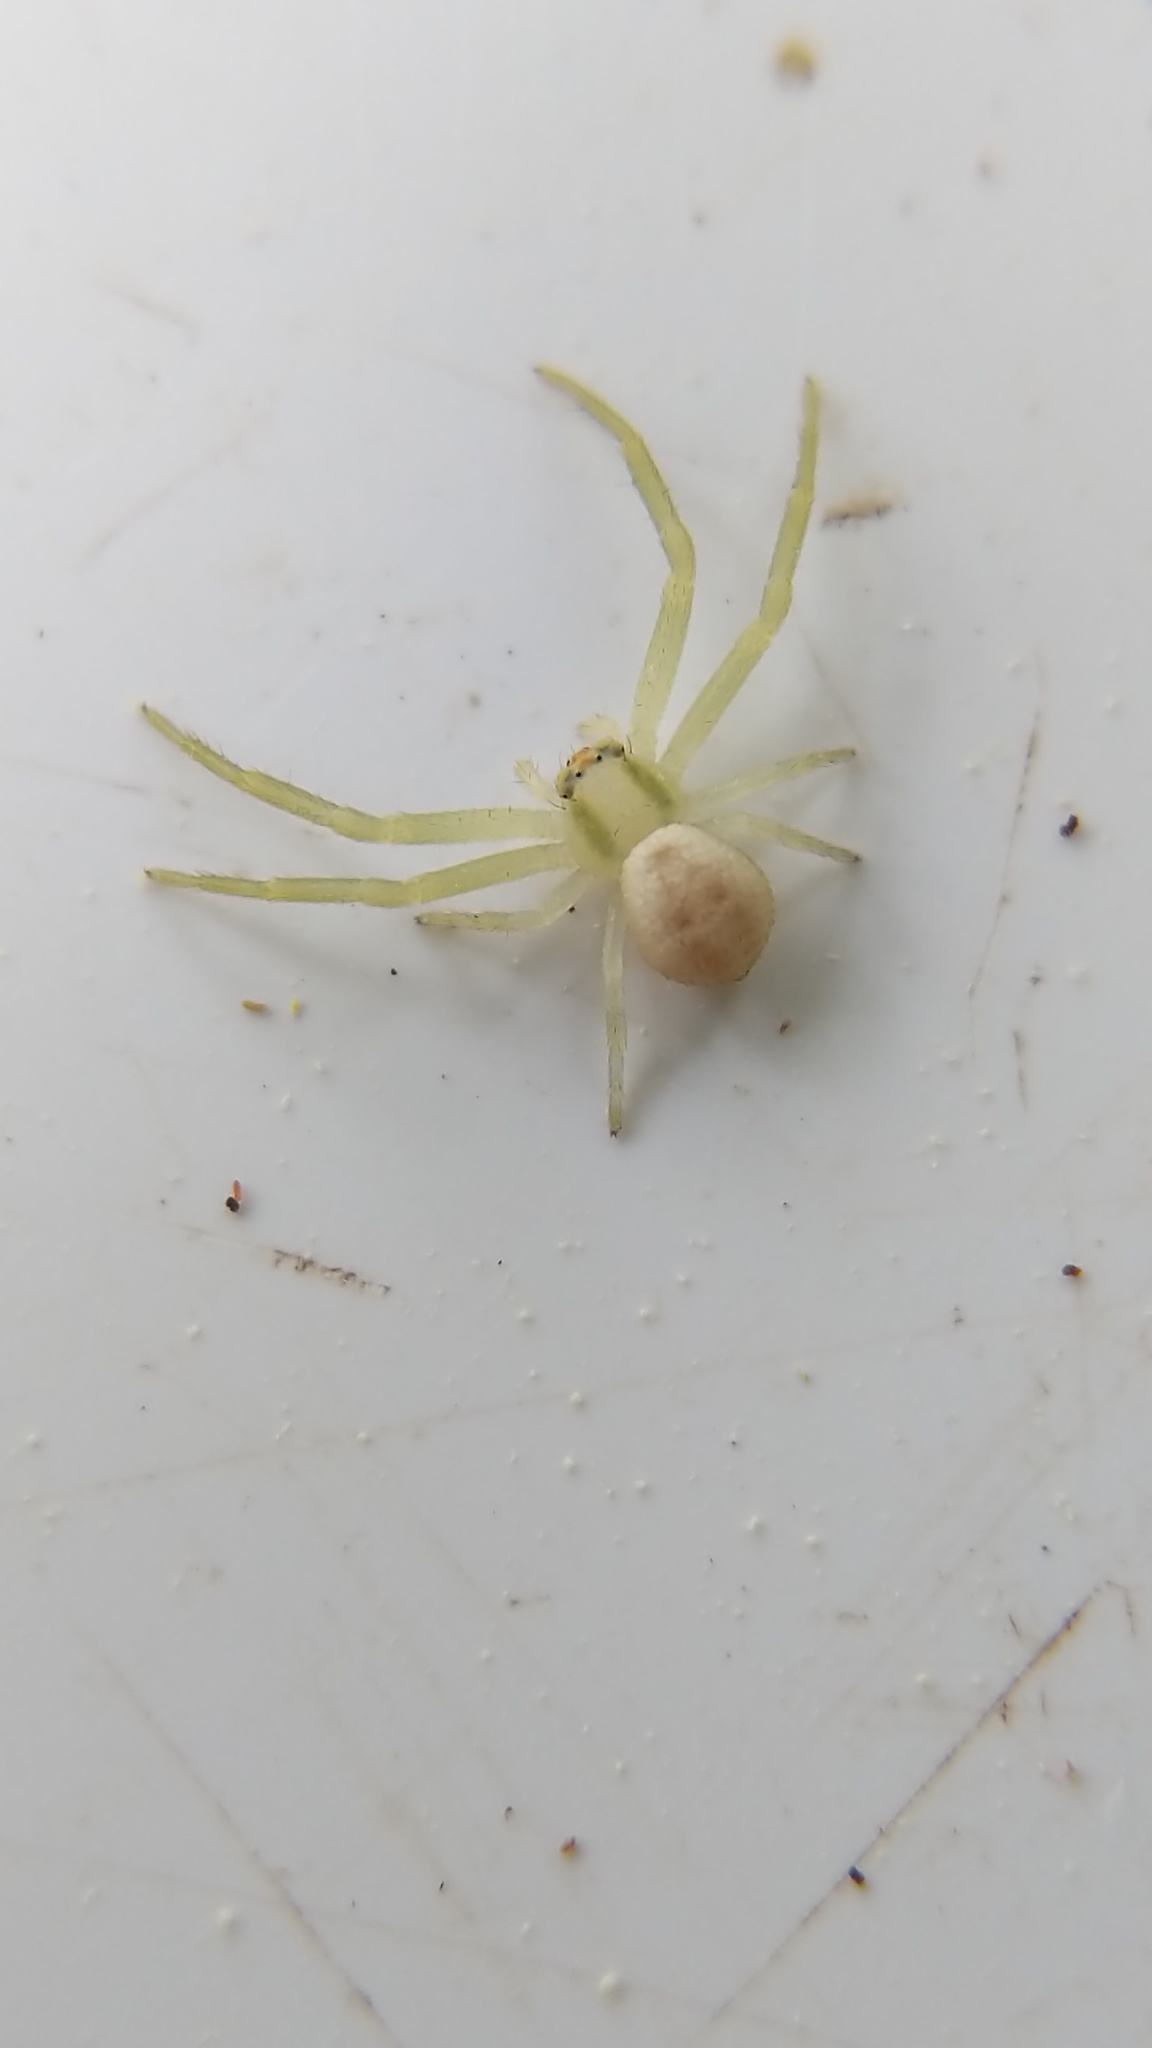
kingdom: Animalia
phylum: Arthropoda
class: Arachnida
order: Araneae
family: Thomisidae
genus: Misumena
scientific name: Misumena vatia
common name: Goldenrod crab spider
